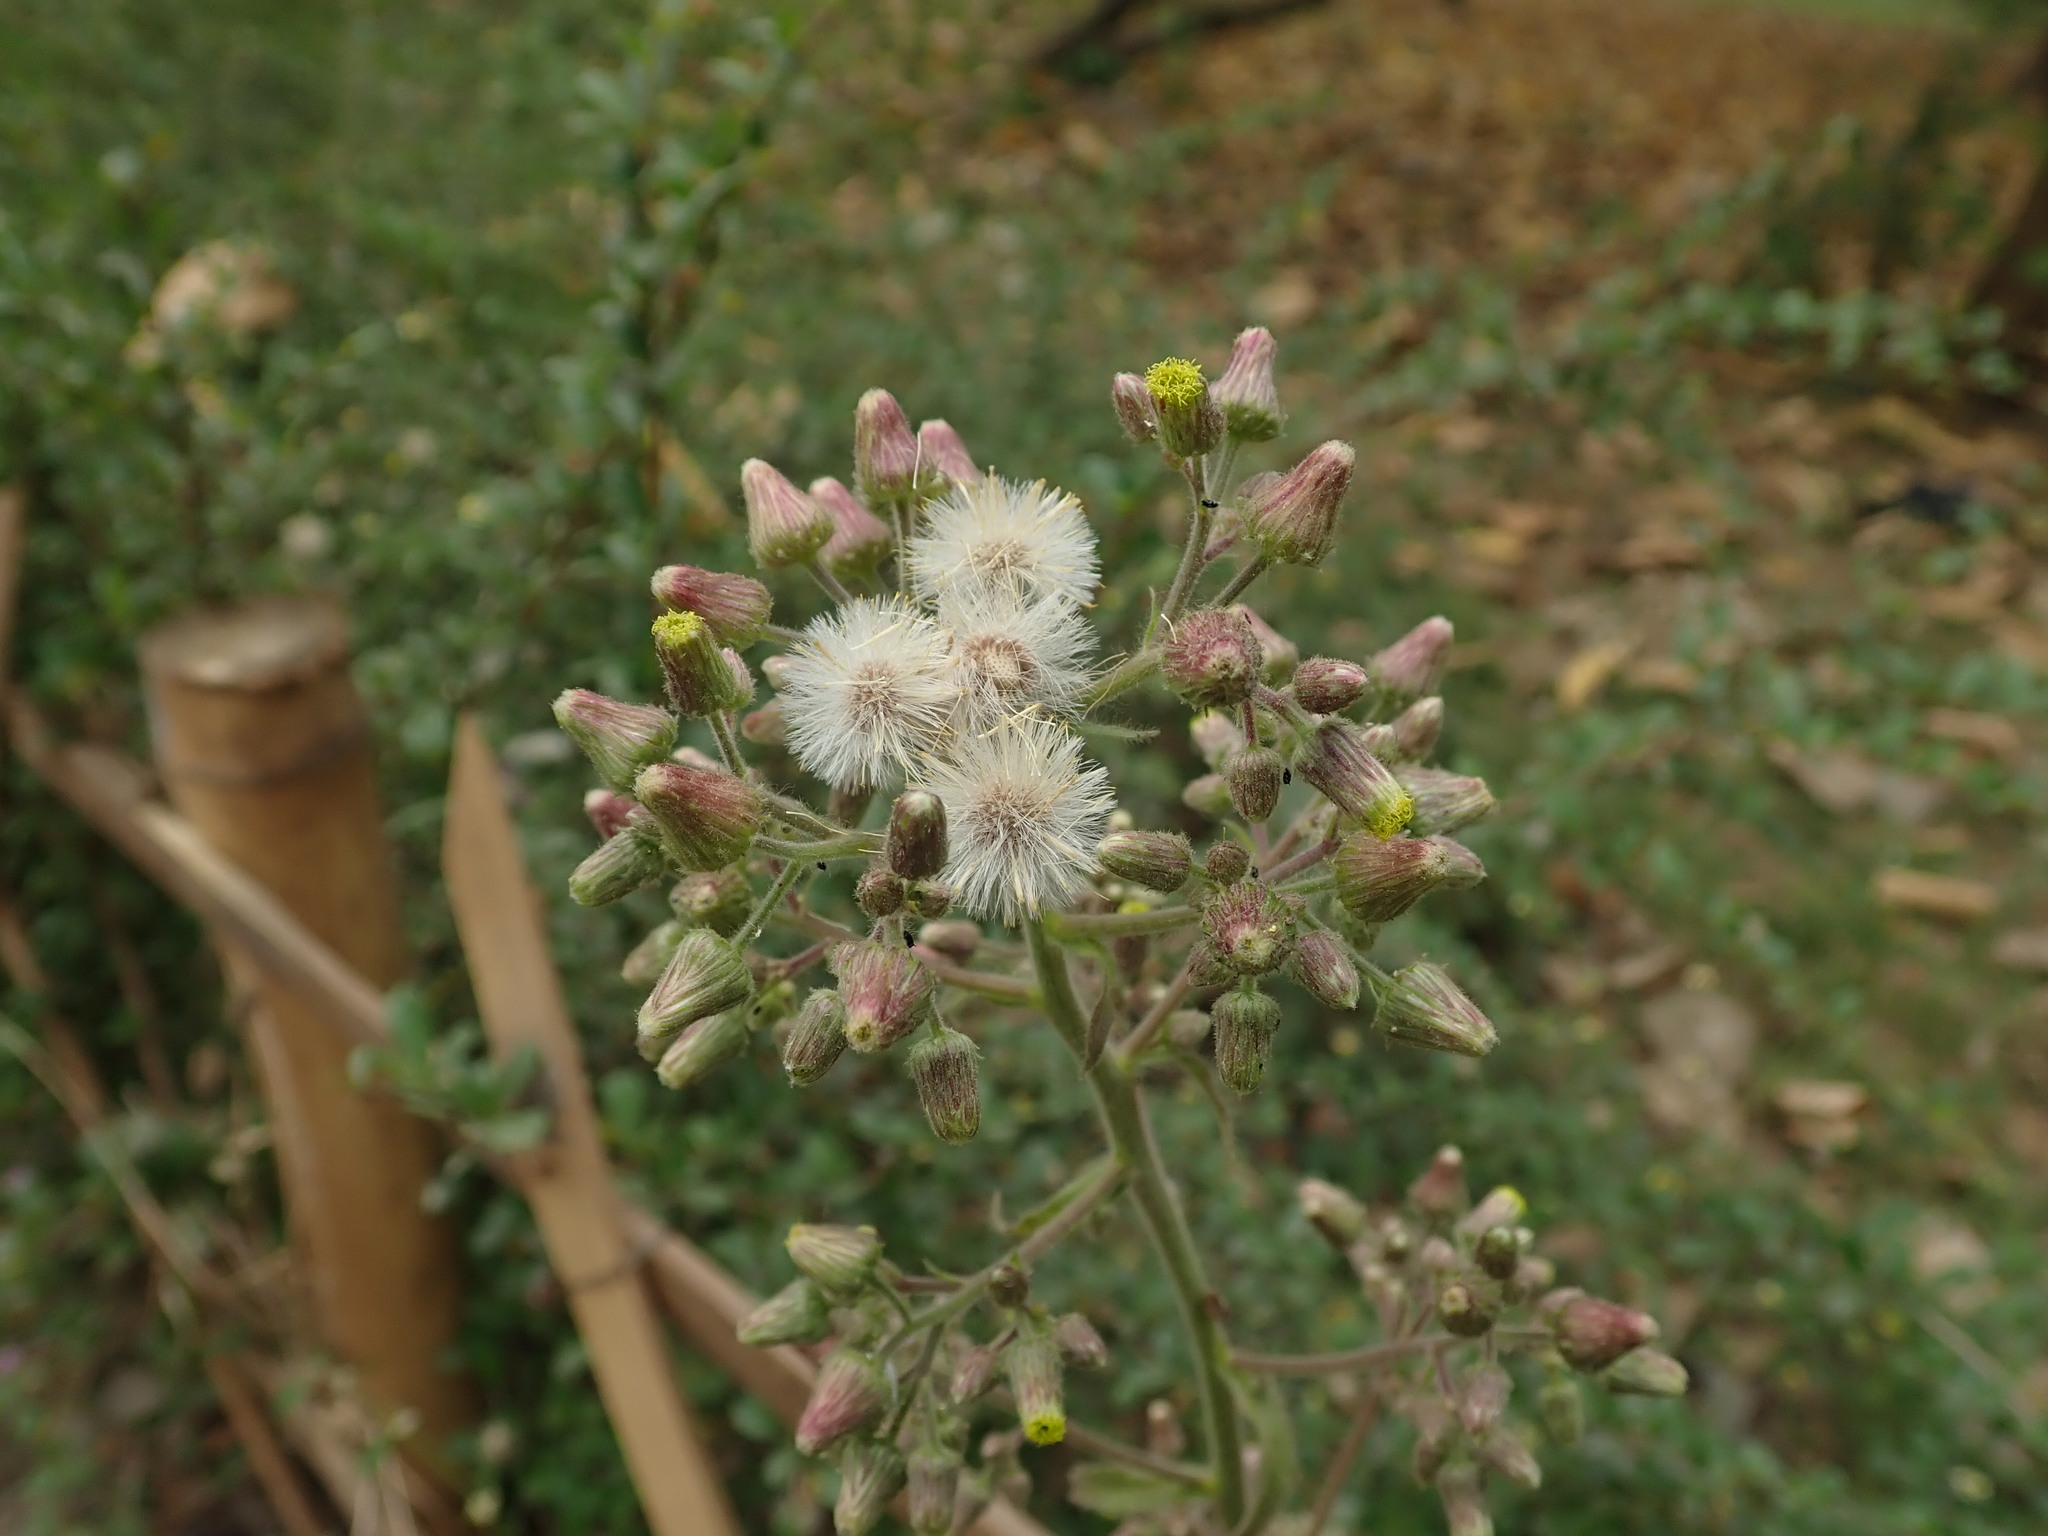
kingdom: Plantae
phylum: Tracheophyta
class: Magnoliopsida
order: Asterales
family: Asteraceae
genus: Blumea
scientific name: Blumea sinuata
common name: Cutleaf false oxtongue
